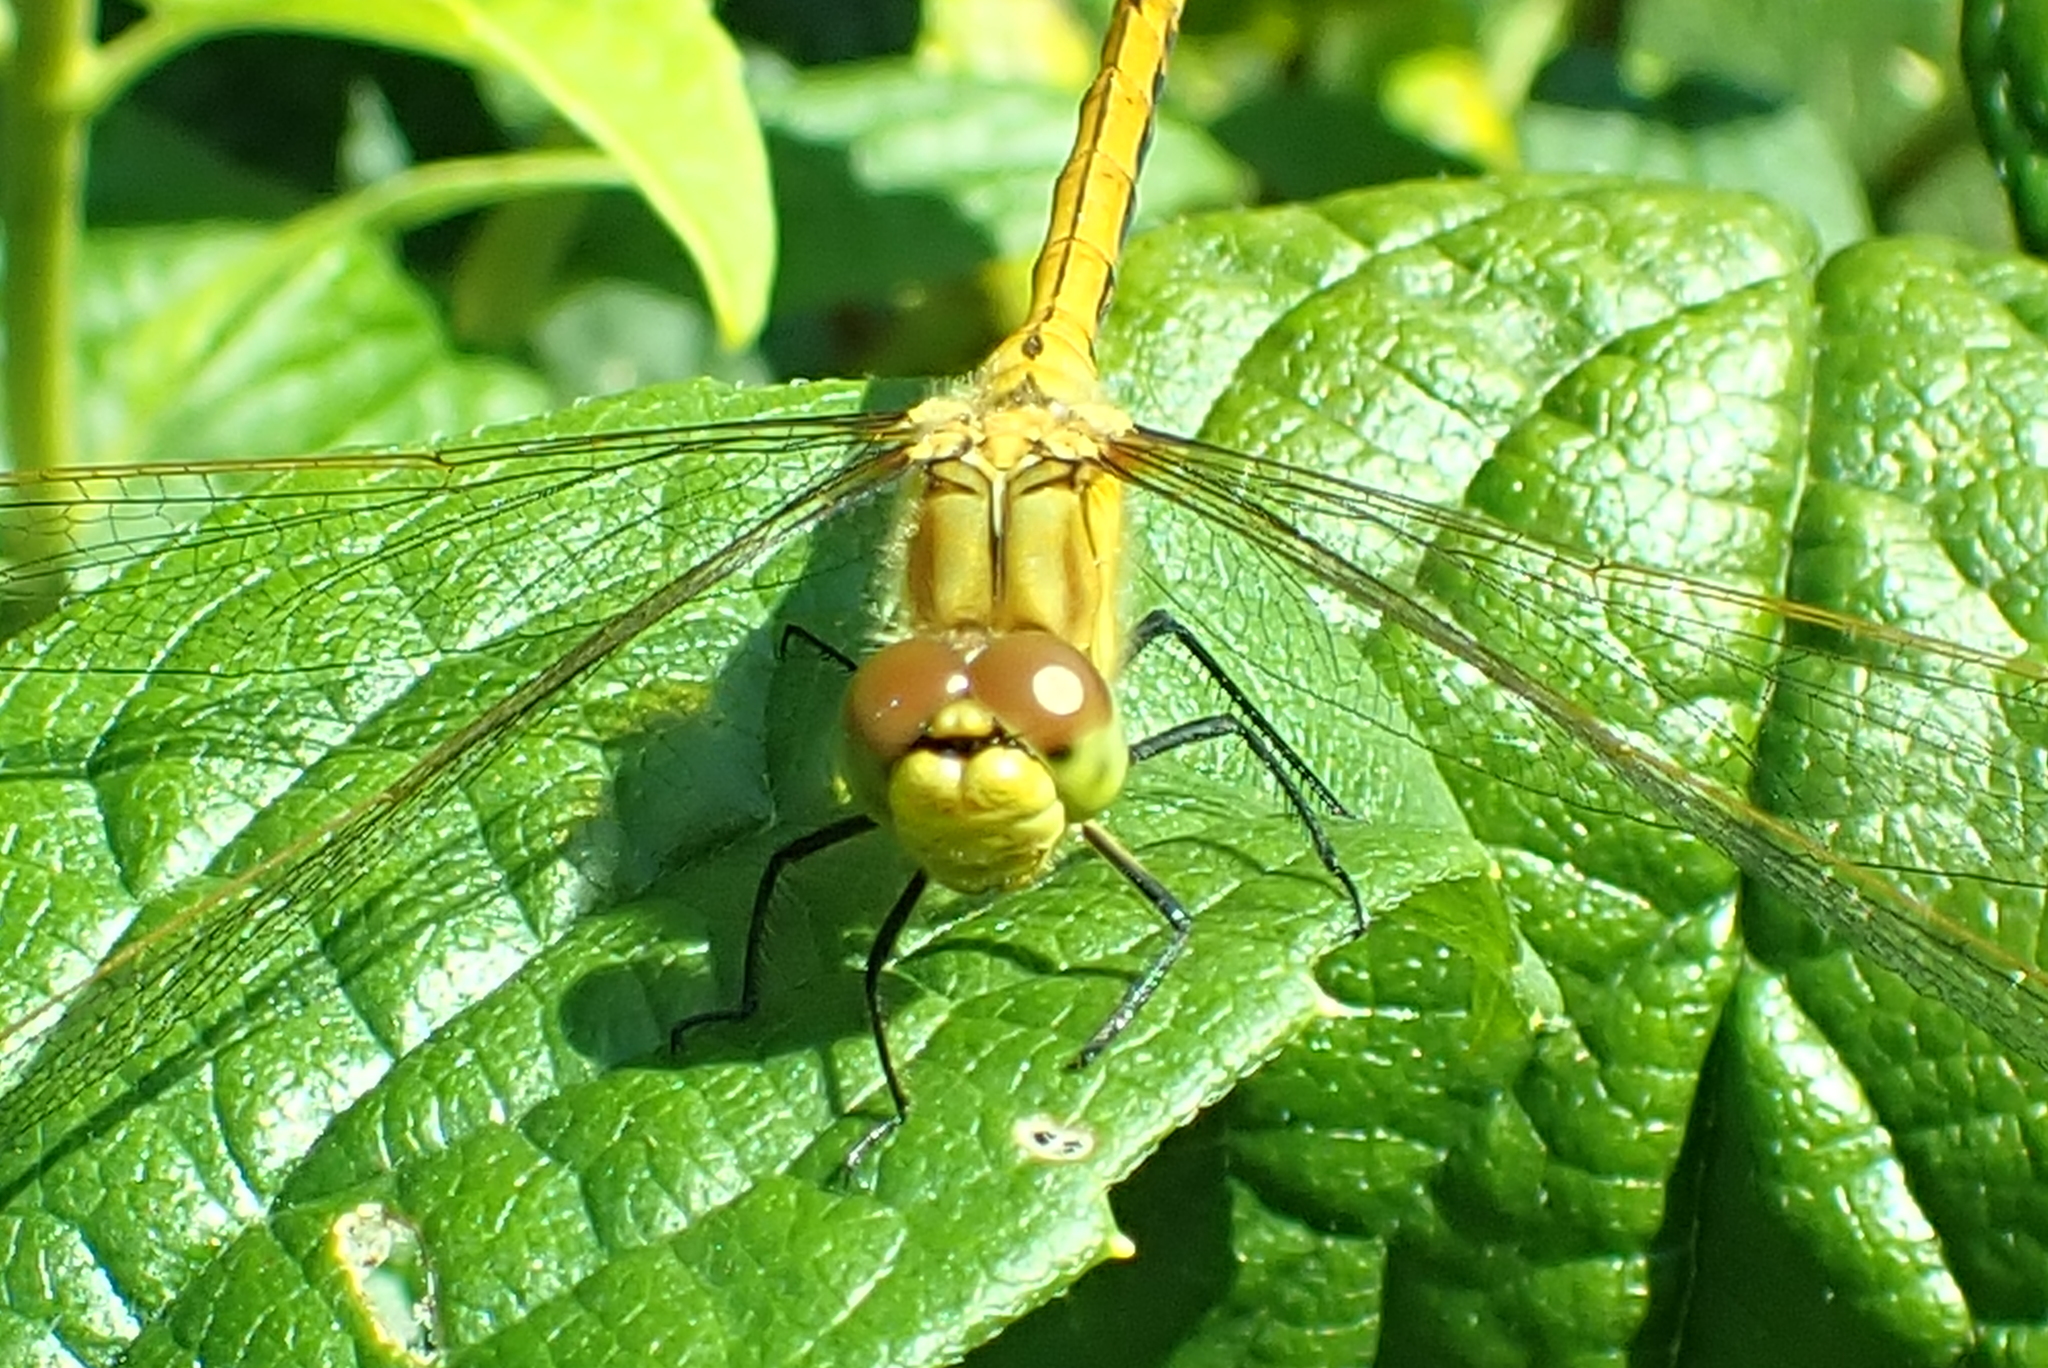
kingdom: Animalia
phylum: Arthropoda
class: Insecta
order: Odonata
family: Libellulidae
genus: Sympetrum
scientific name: Sympetrum costiferum
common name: Saffron-winged meadowhawk
